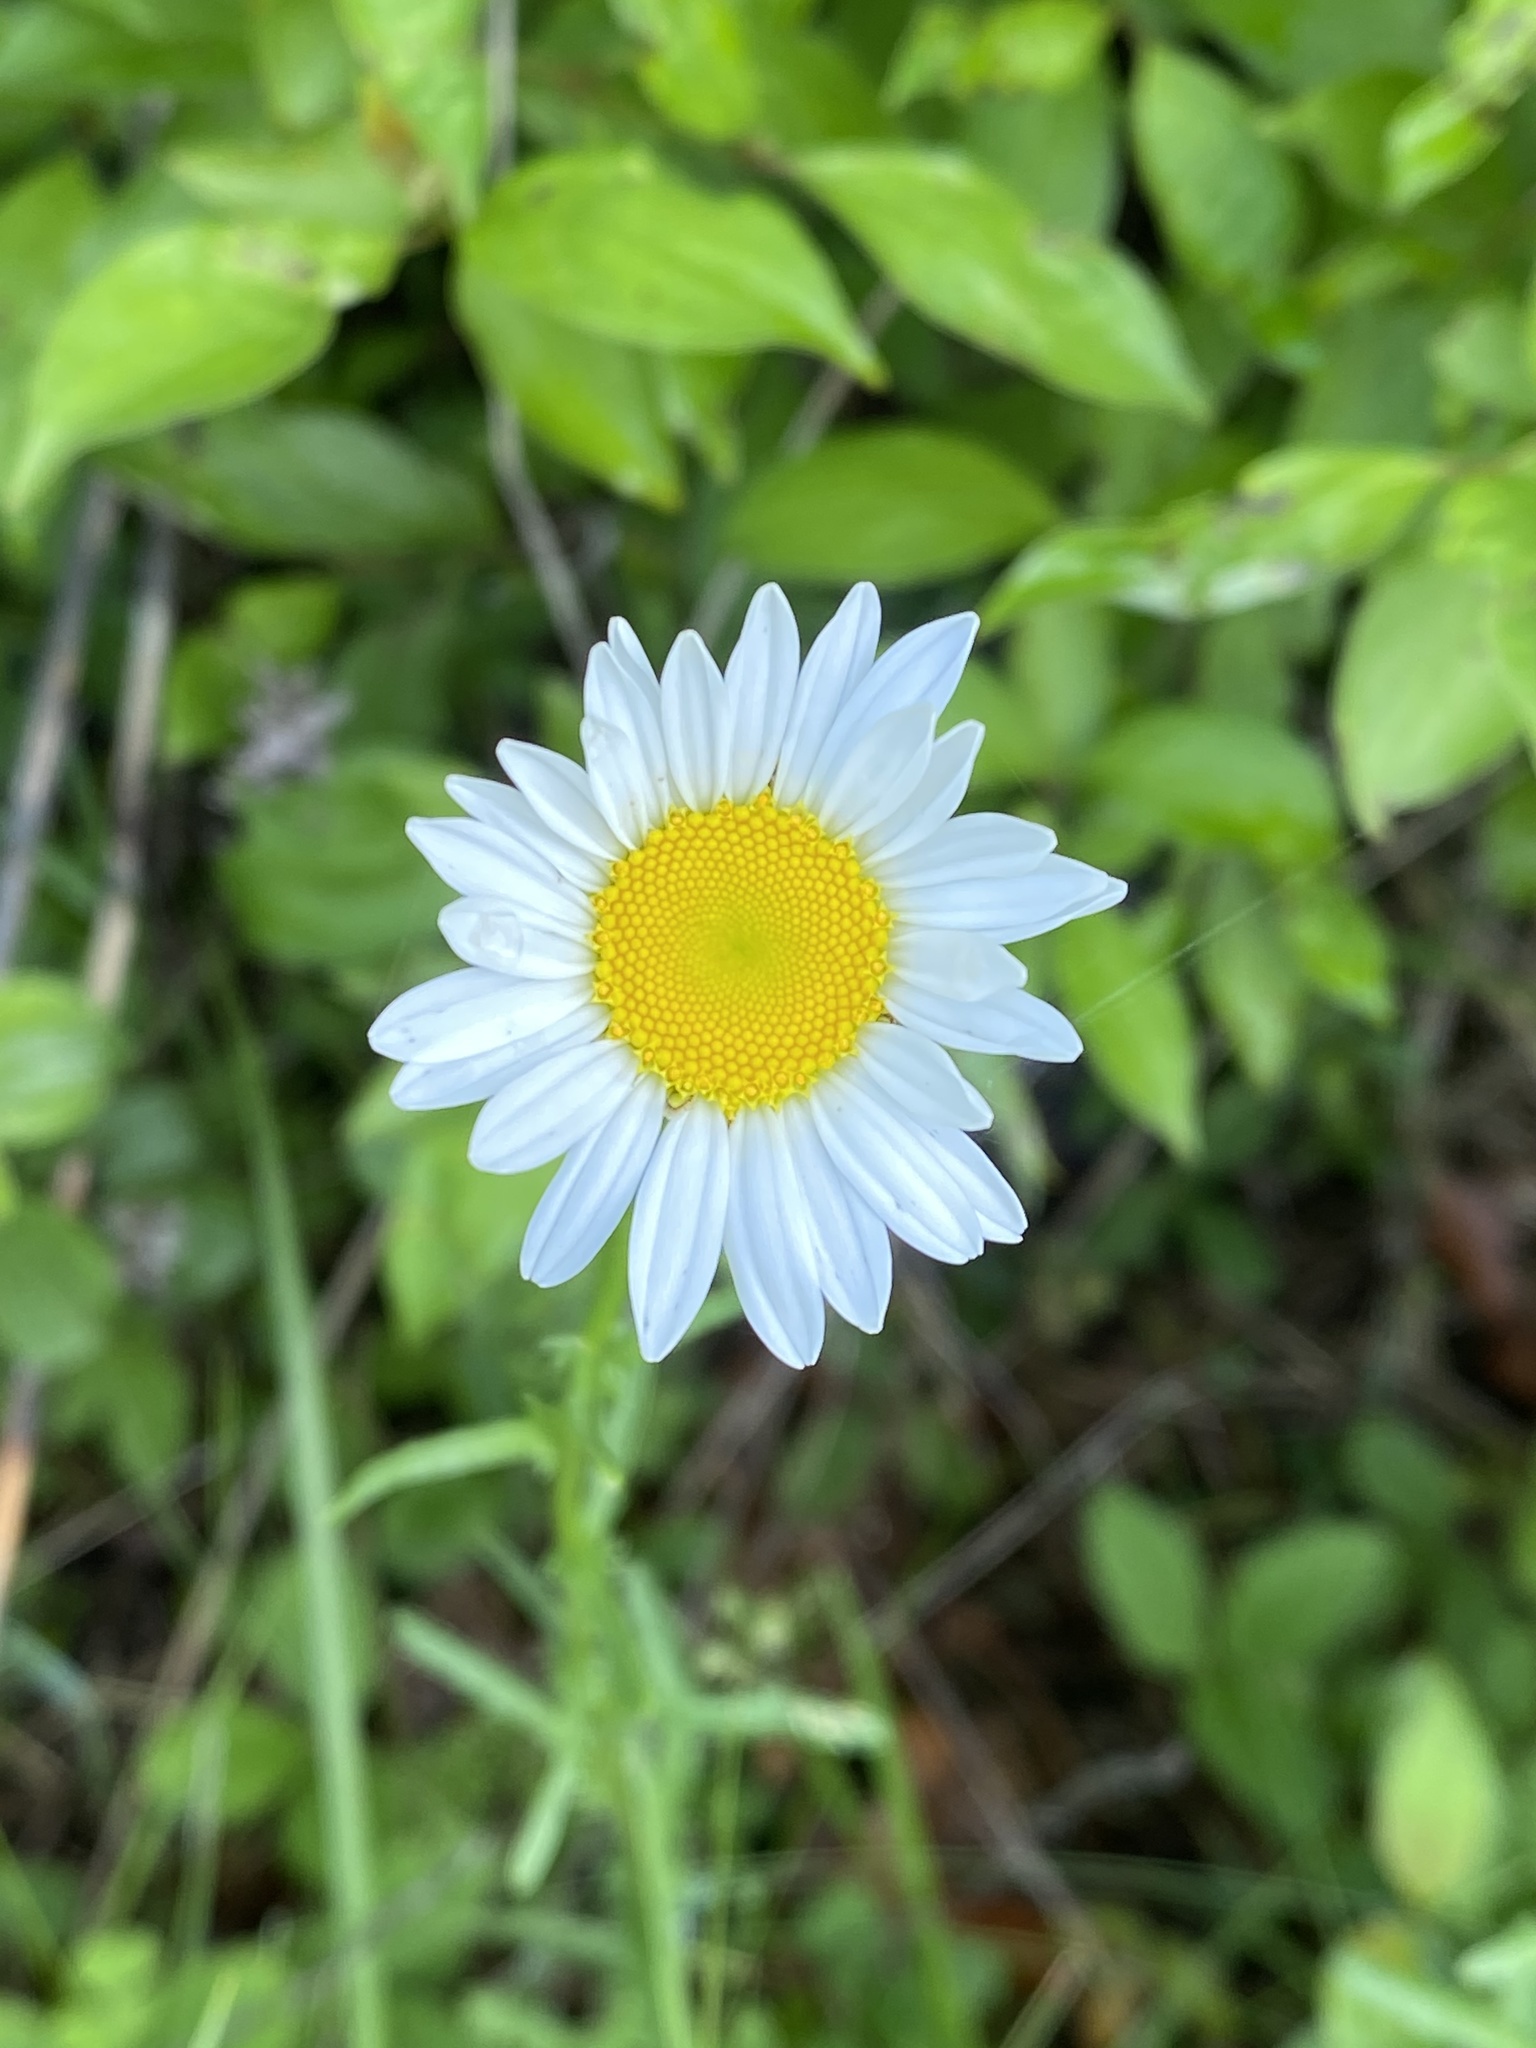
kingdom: Plantae
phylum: Tracheophyta
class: Magnoliopsida
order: Asterales
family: Asteraceae
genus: Leucanthemum
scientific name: Leucanthemum vulgare
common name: Oxeye daisy
